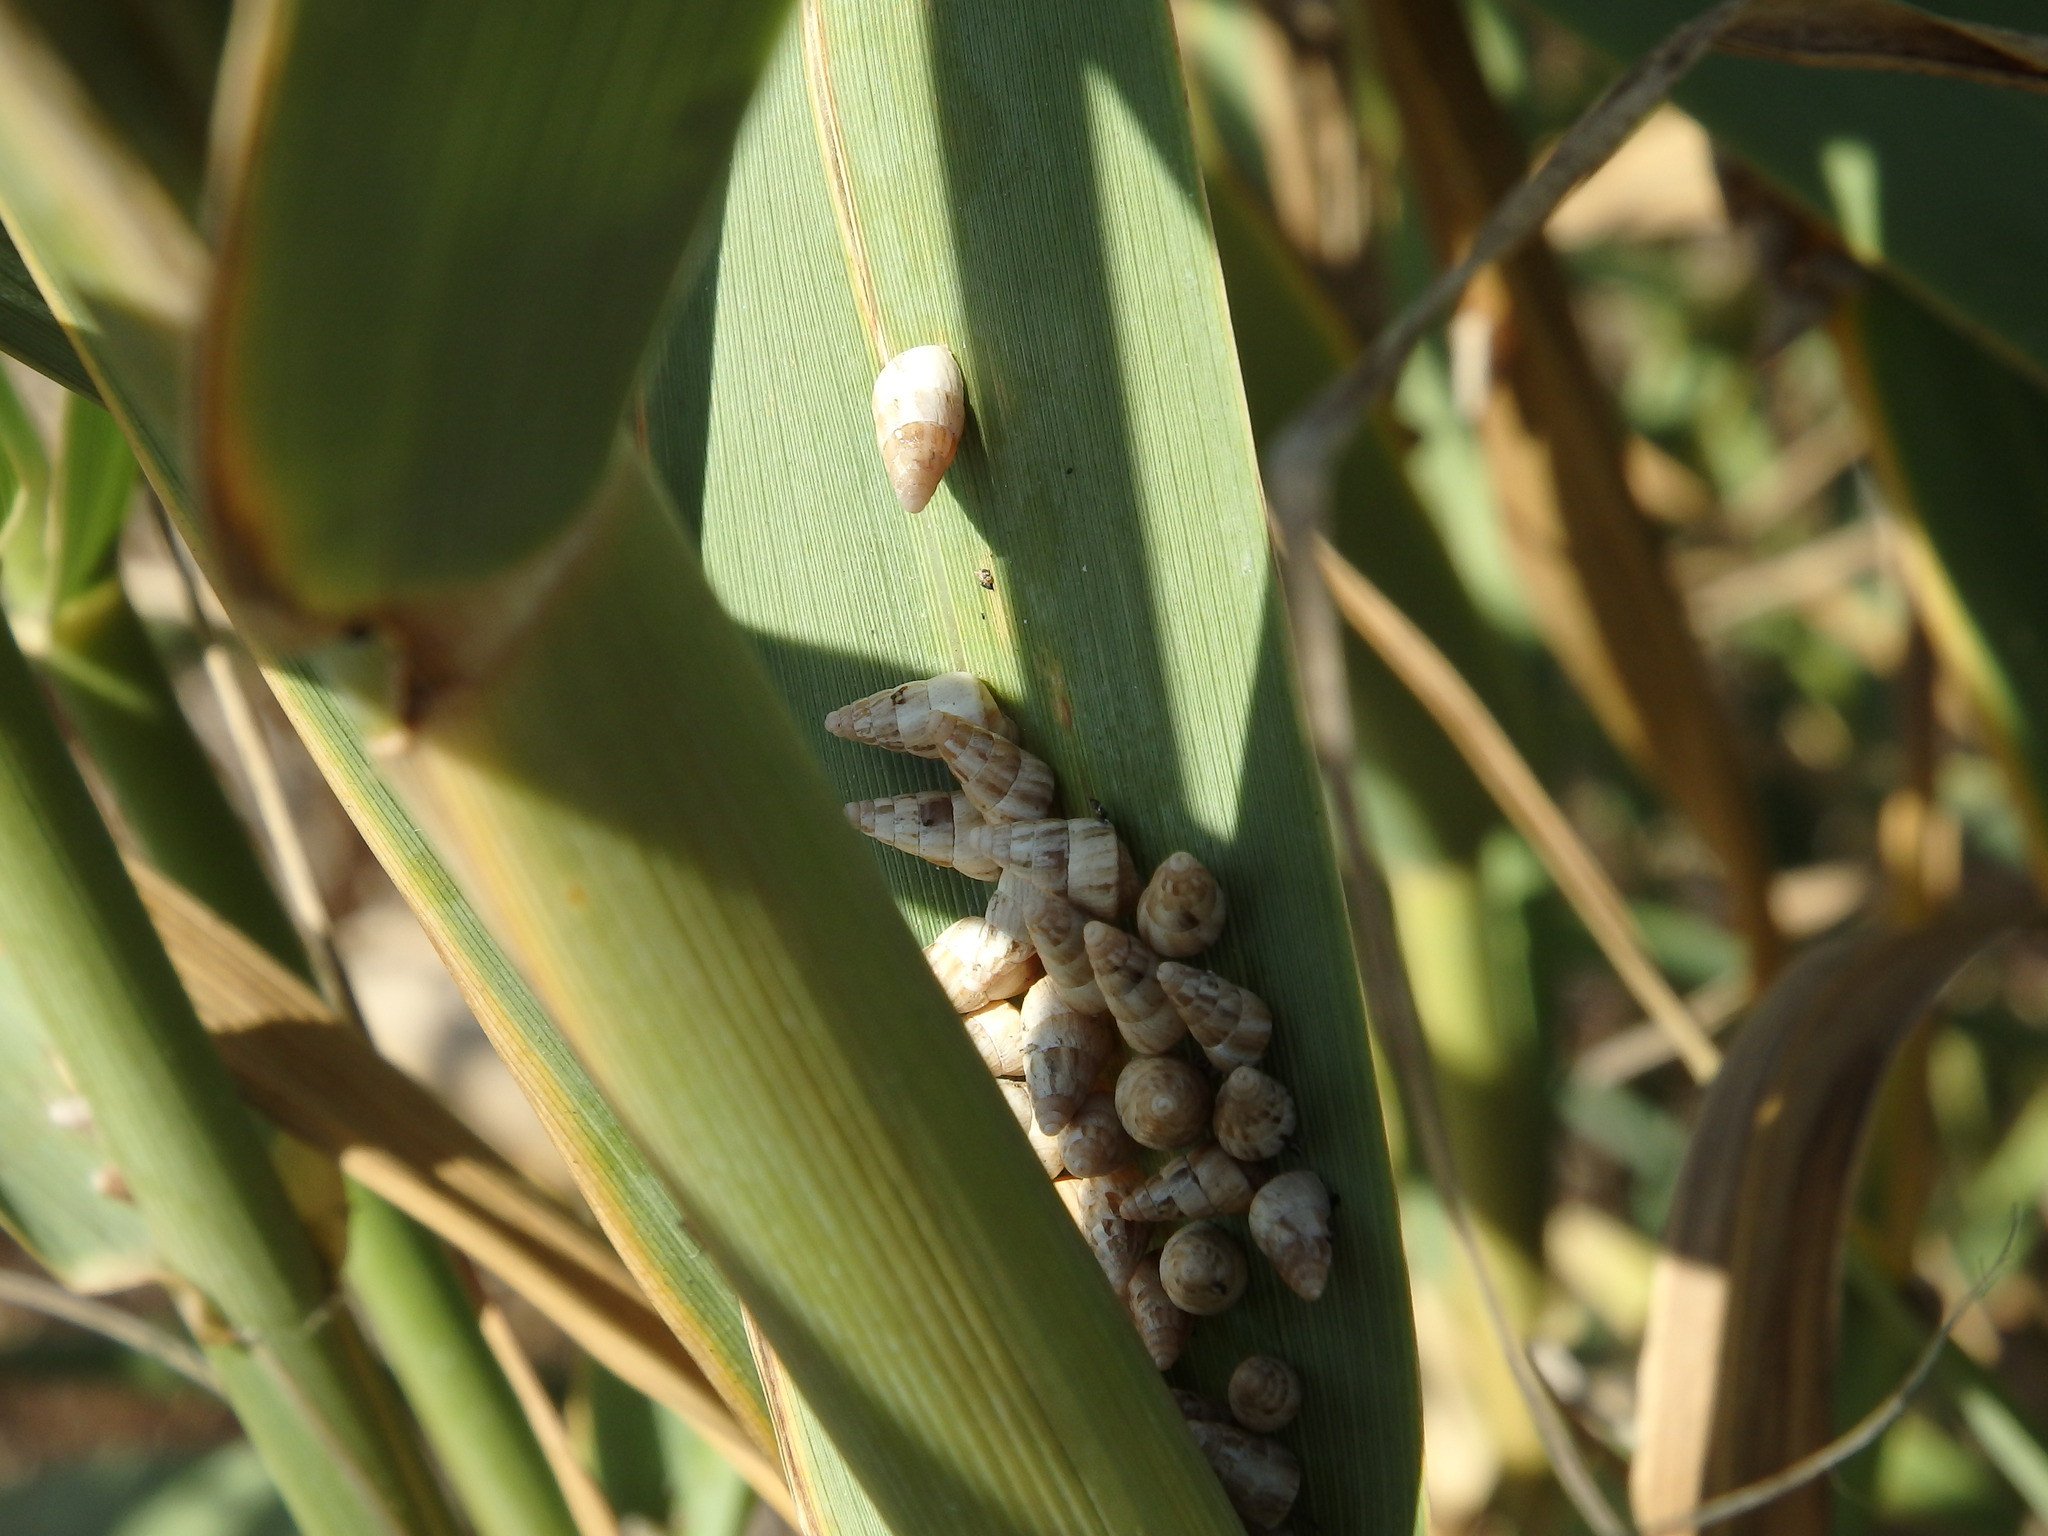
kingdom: Animalia
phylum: Mollusca
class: Gastropoda
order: Stylommatophora
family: Geomitridae
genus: Cochlicella
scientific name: Cochlicella acuta
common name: Pointed snail
